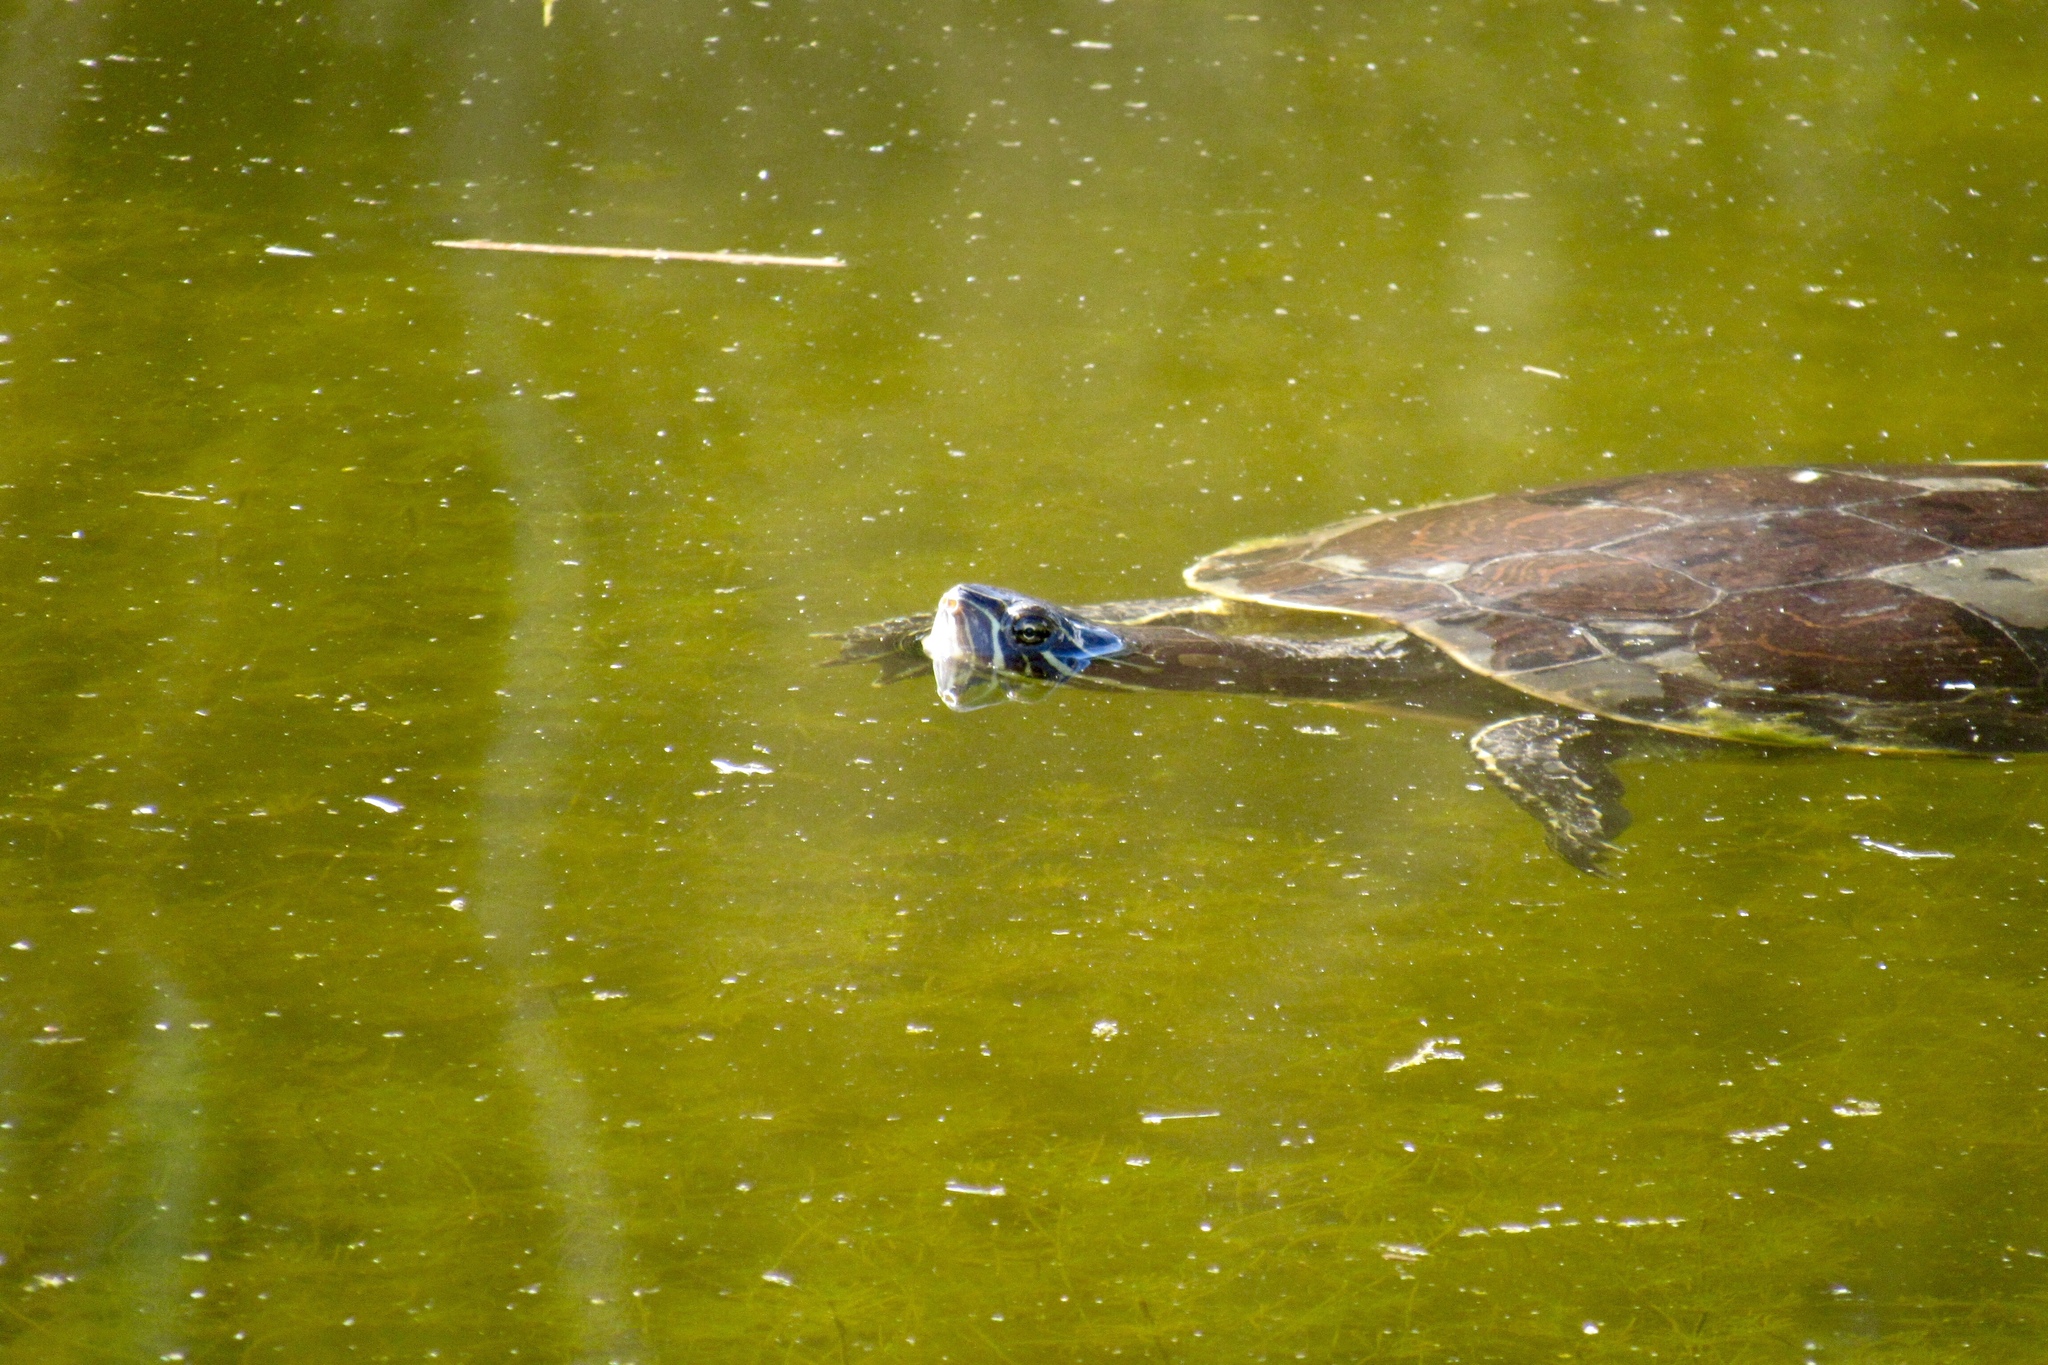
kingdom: Animalia
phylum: Chordata
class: Testudines
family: Emydidae
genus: Trachemys
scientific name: Trachemys scripta
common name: Slider
